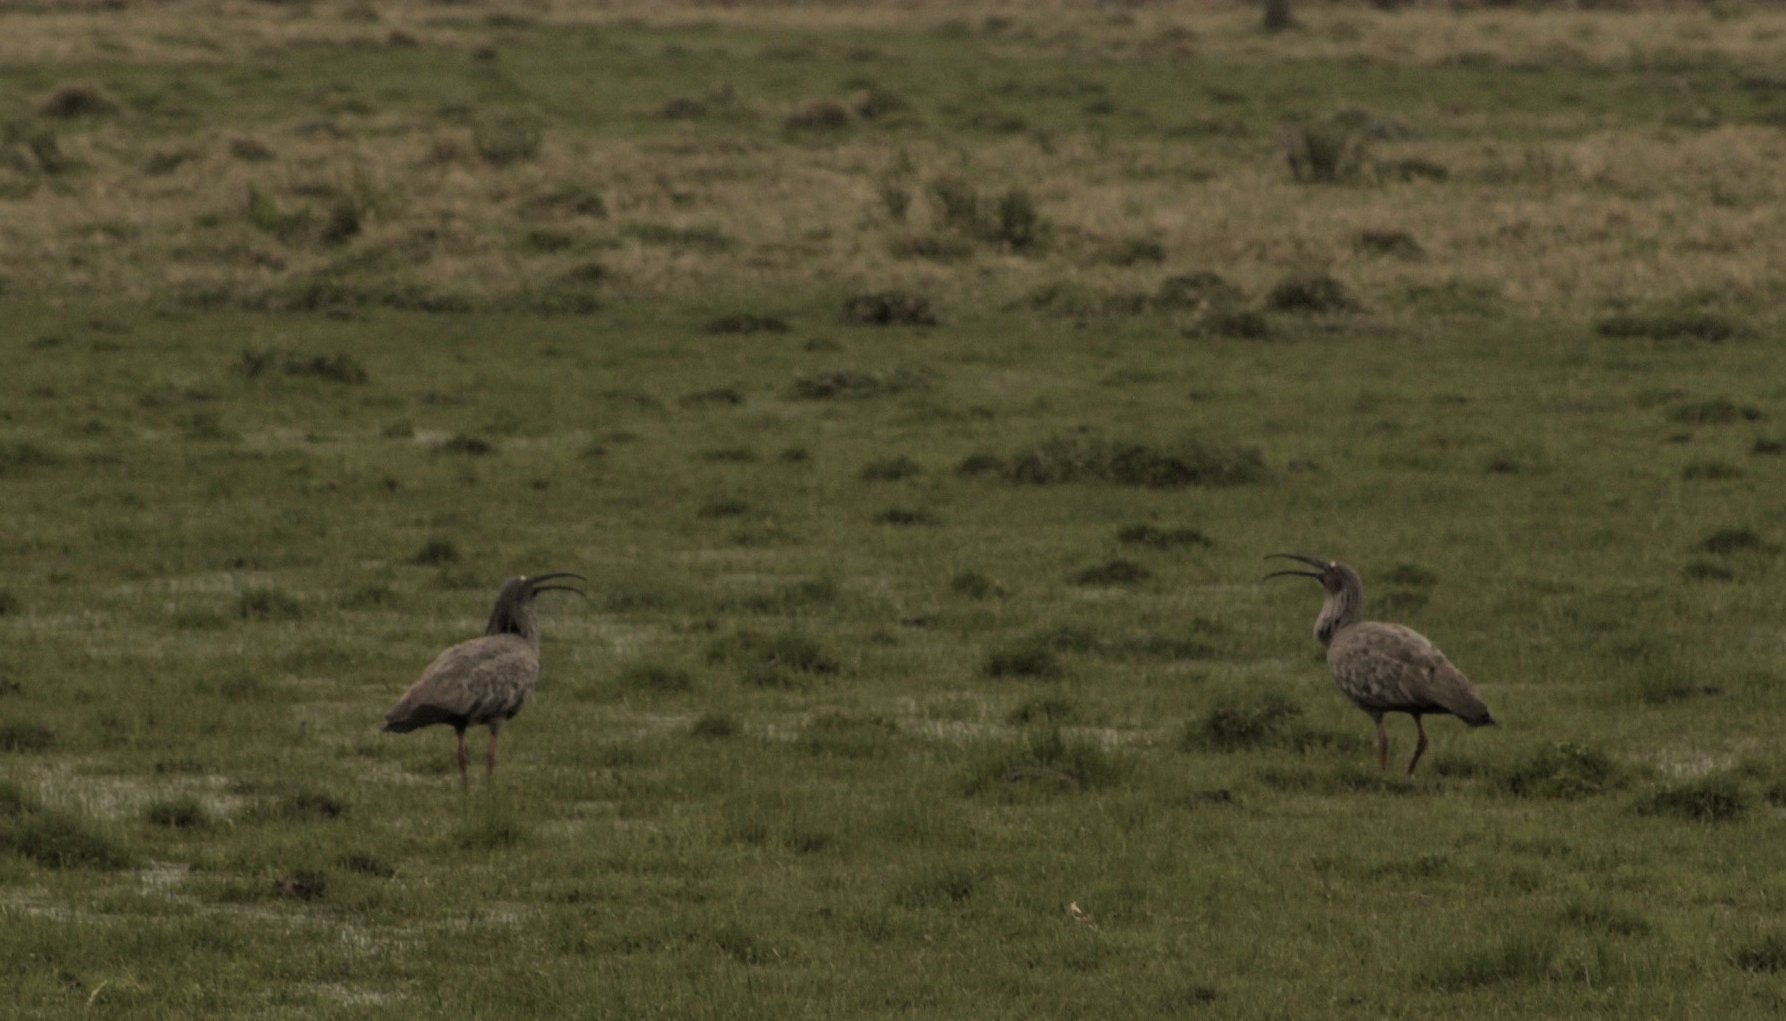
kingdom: Animalia
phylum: Chordata
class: Aves
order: Pelecaniformes
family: Threskiornithidae
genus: Theristicus
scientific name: Theristicus caerulescens
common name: Plumbeous ibis
